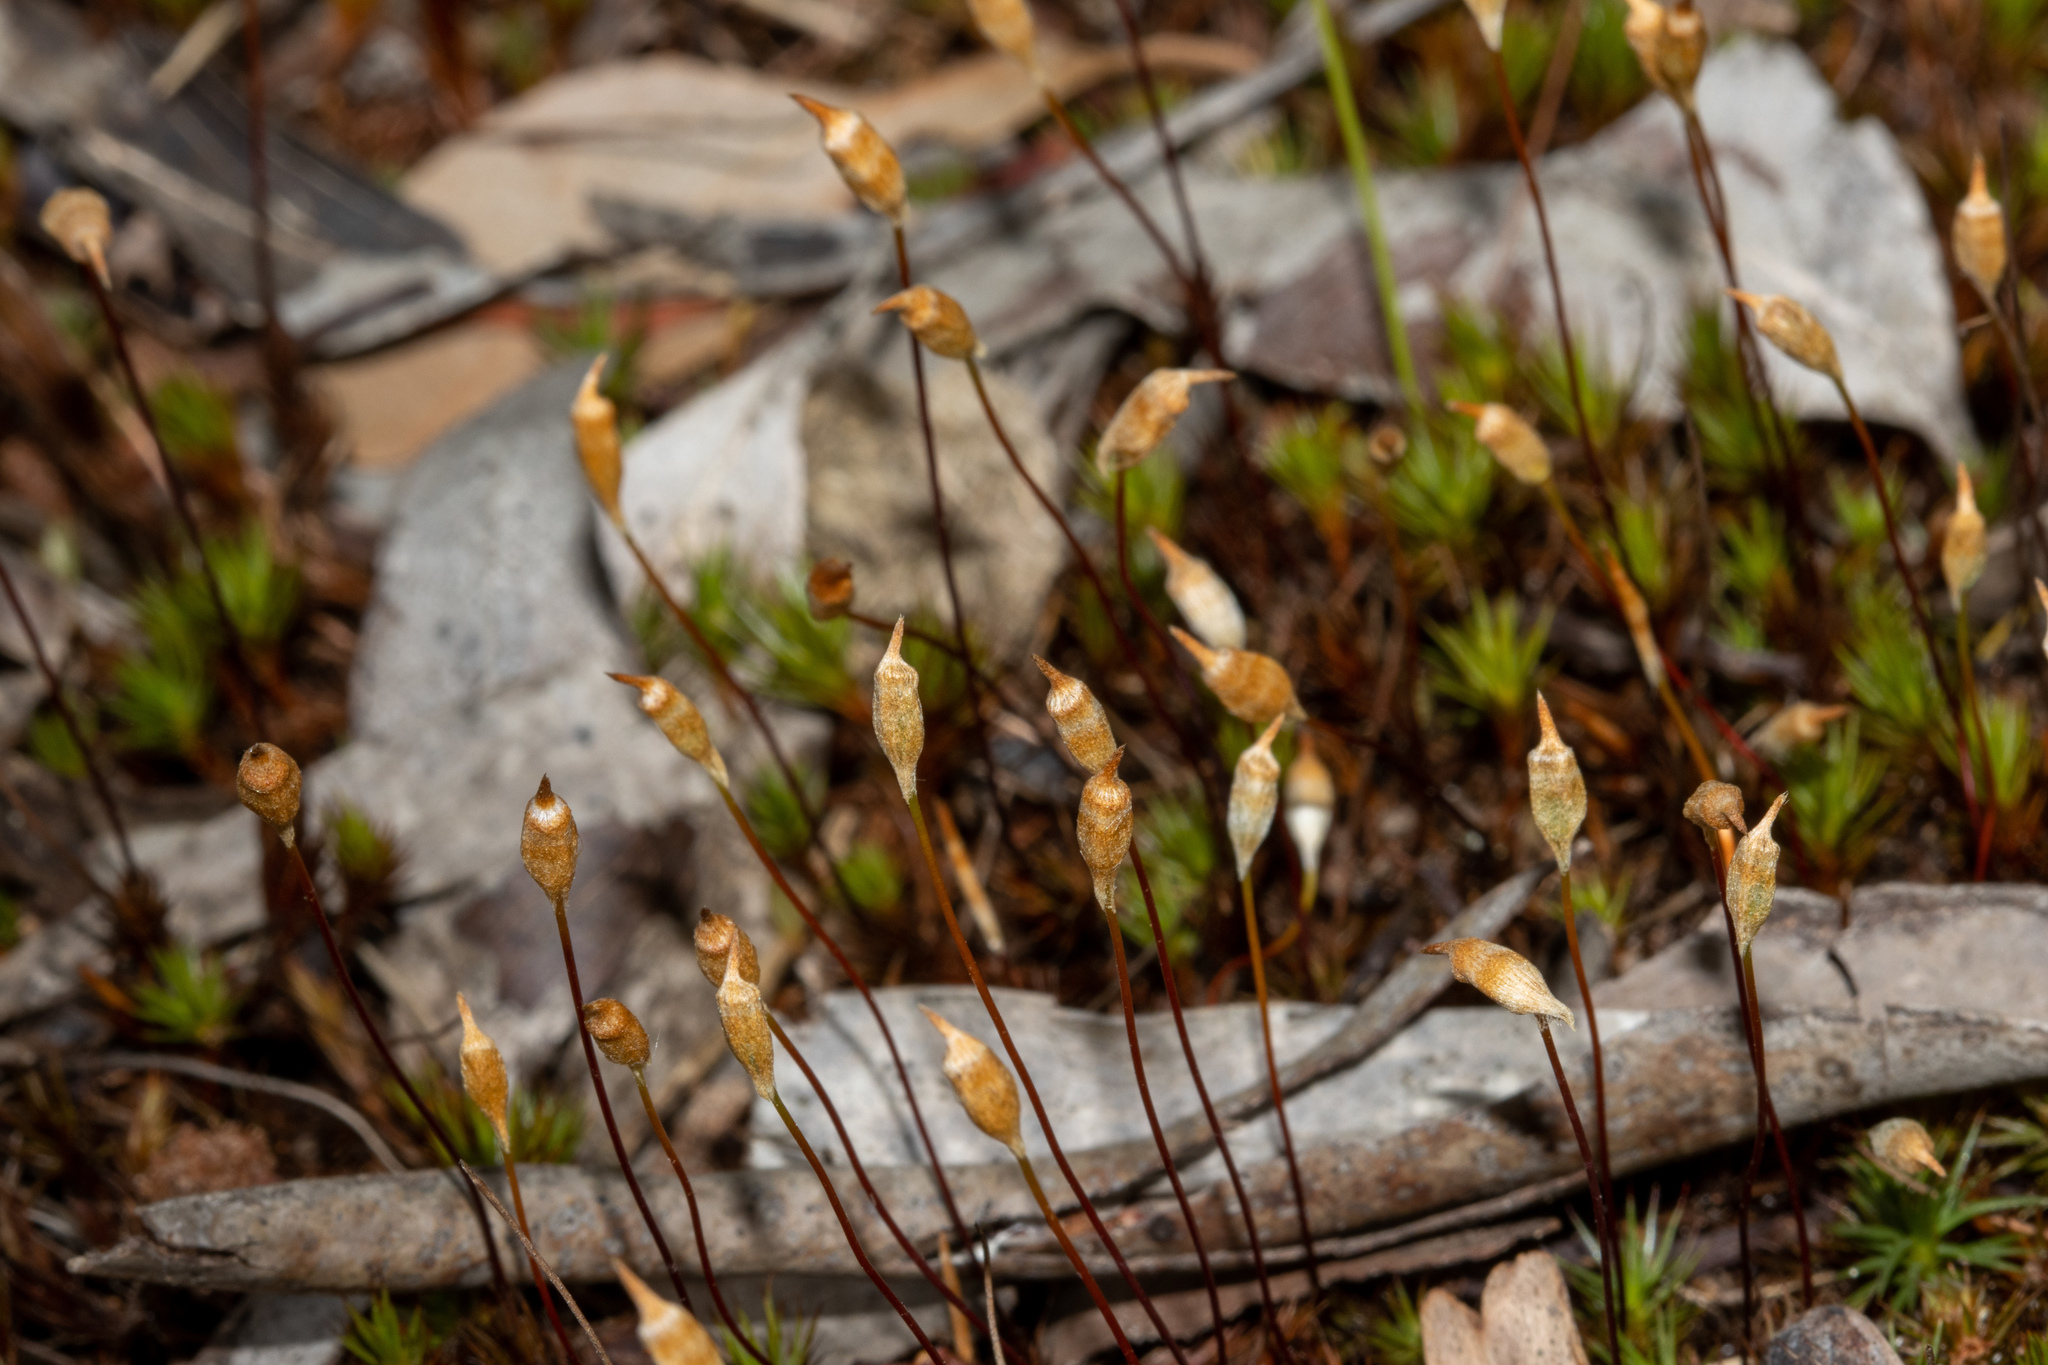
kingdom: Plantae
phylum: Bryophyta
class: Polytrichopsida
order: Polytrichales
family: Polytrichaceae
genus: Polytrichum
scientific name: Polytrichum juniperinum
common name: Juniper haircap moss
